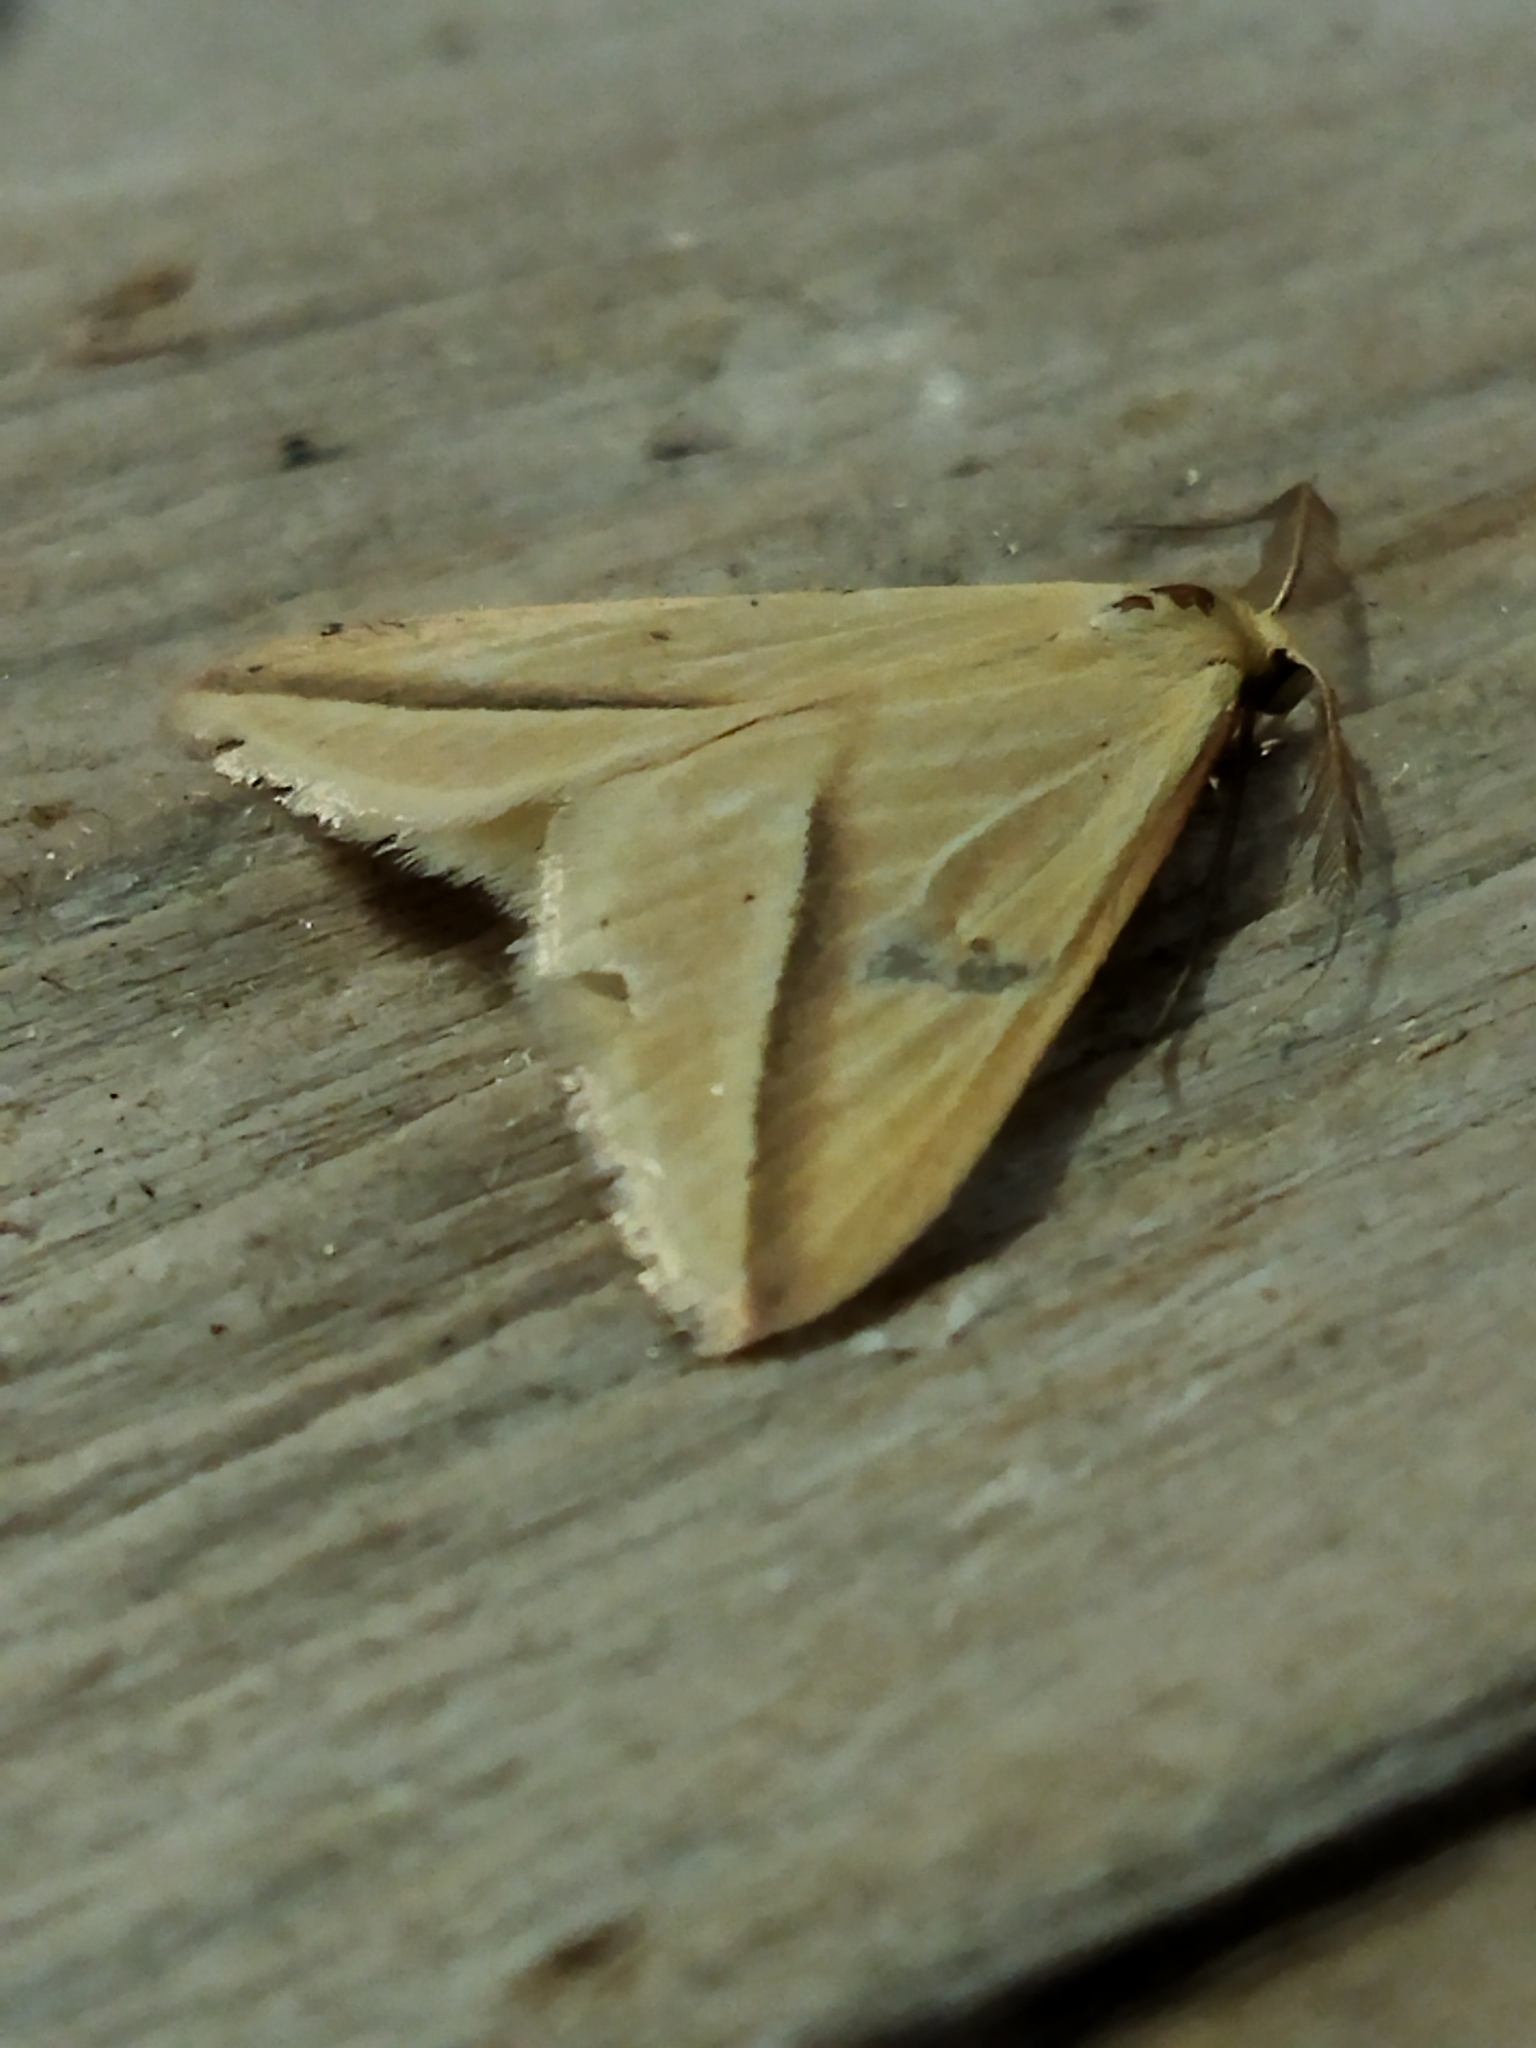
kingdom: Animalia
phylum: Arthropoda
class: Insecta
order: Lepidoptera
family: Geometridae
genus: Rhodometra
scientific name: Rhodometra sacraria
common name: Vestal
